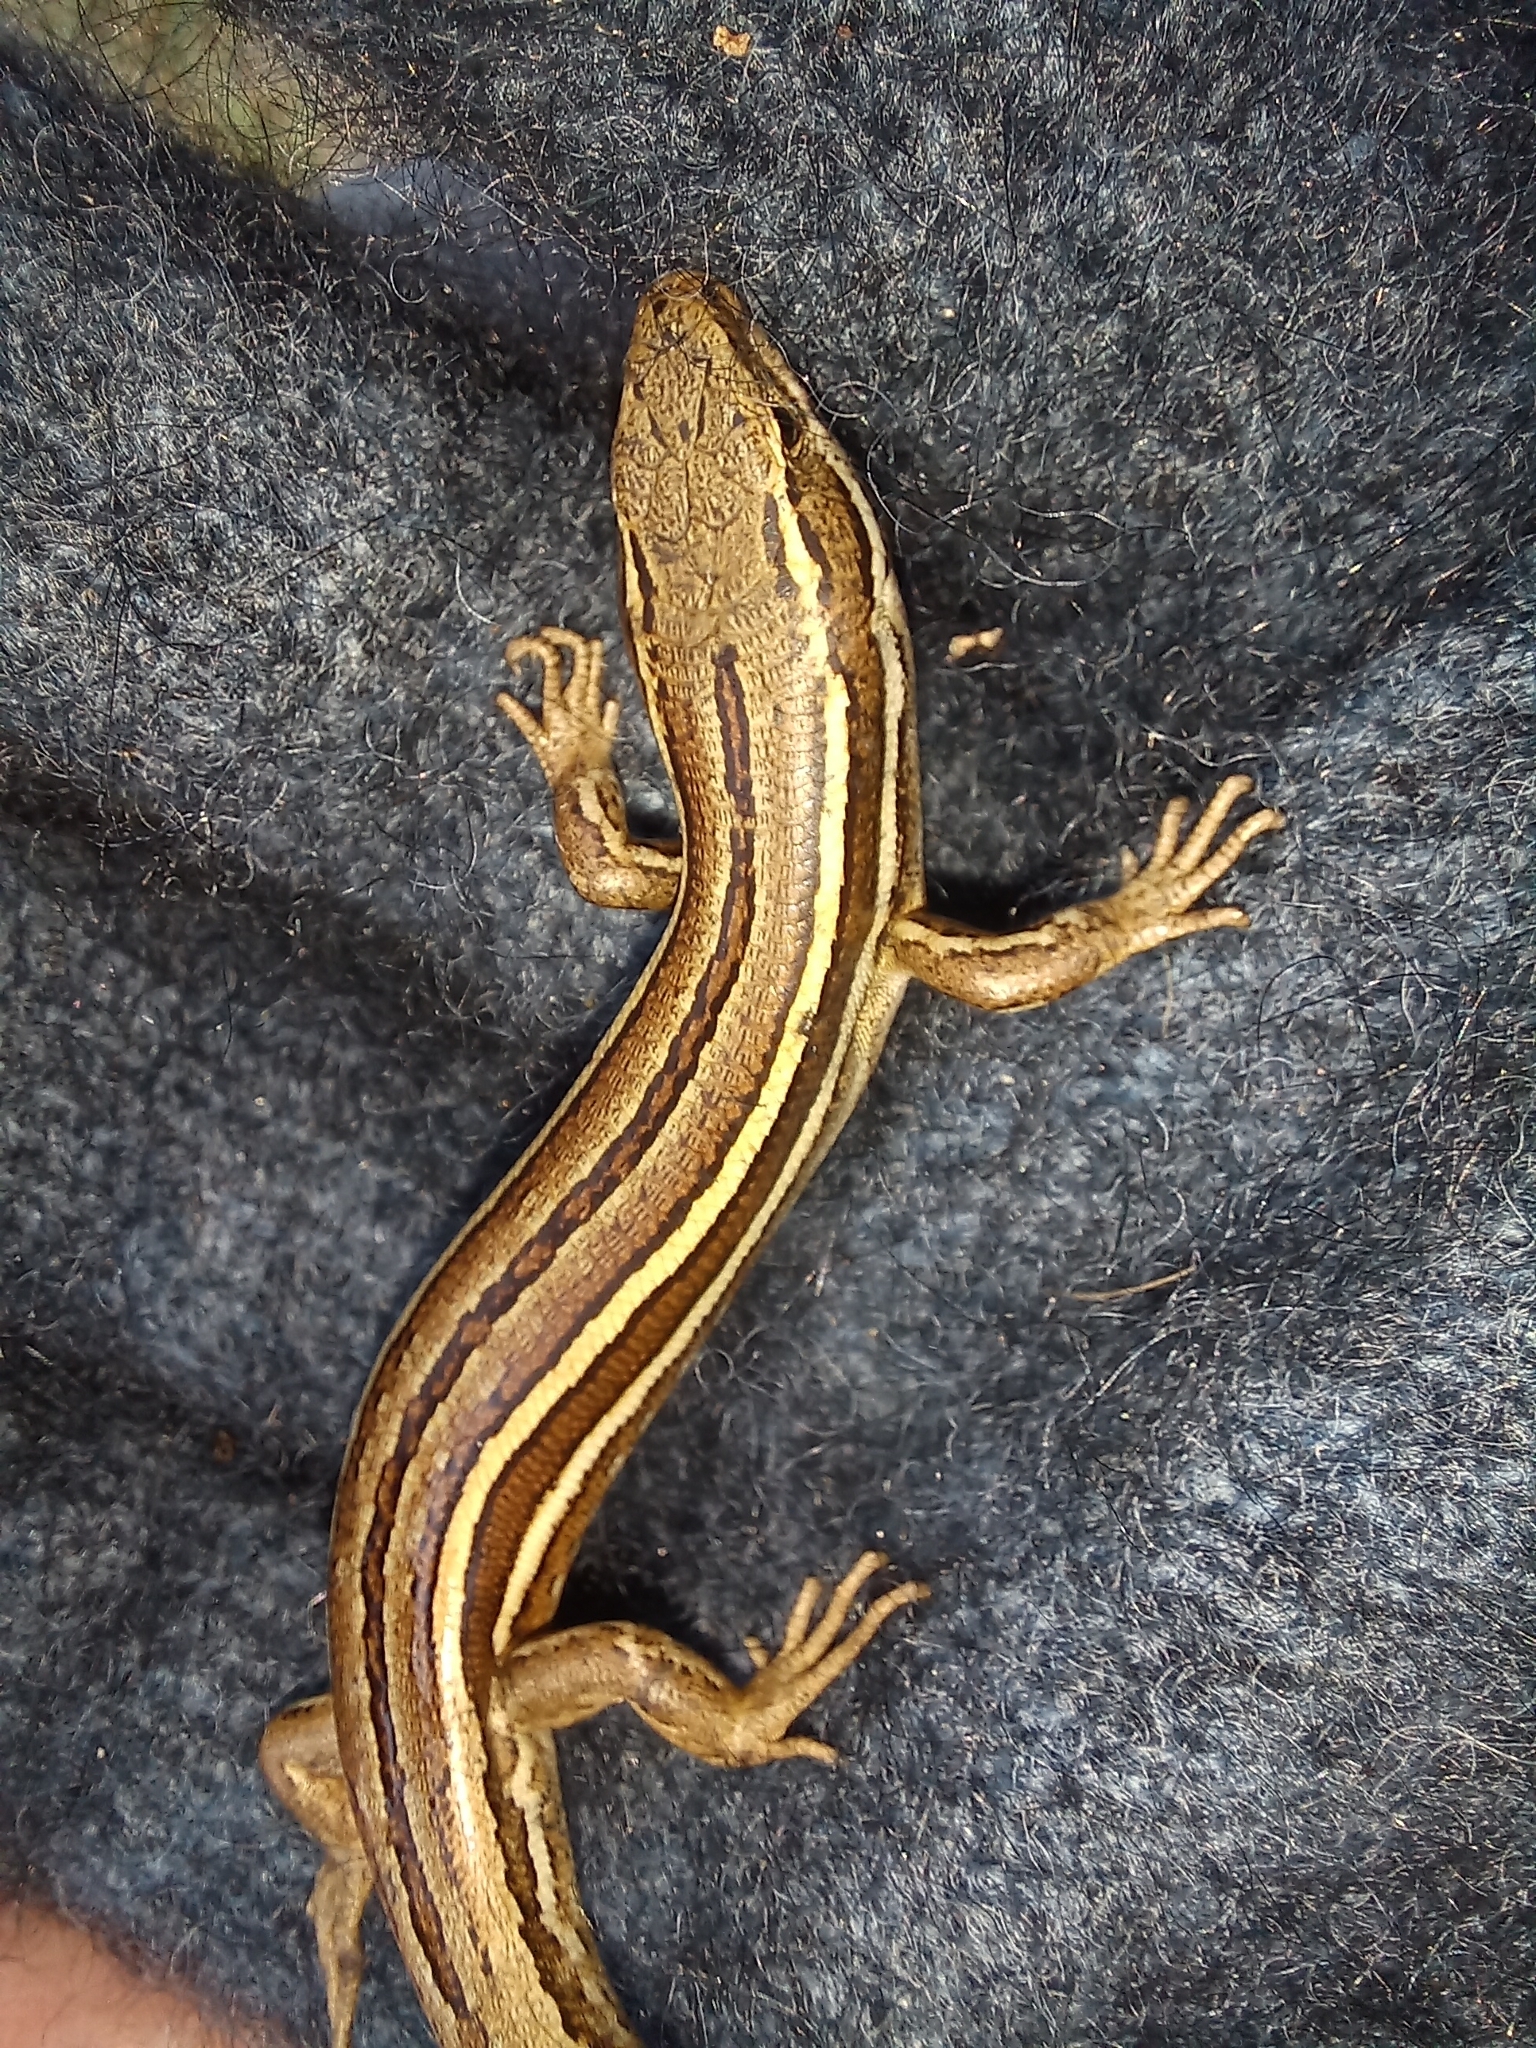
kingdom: Animalia
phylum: Chordata
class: Squamata
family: Scincidae
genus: Oligosoma
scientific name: Oligosoma polychroma
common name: Common new zealand skink
